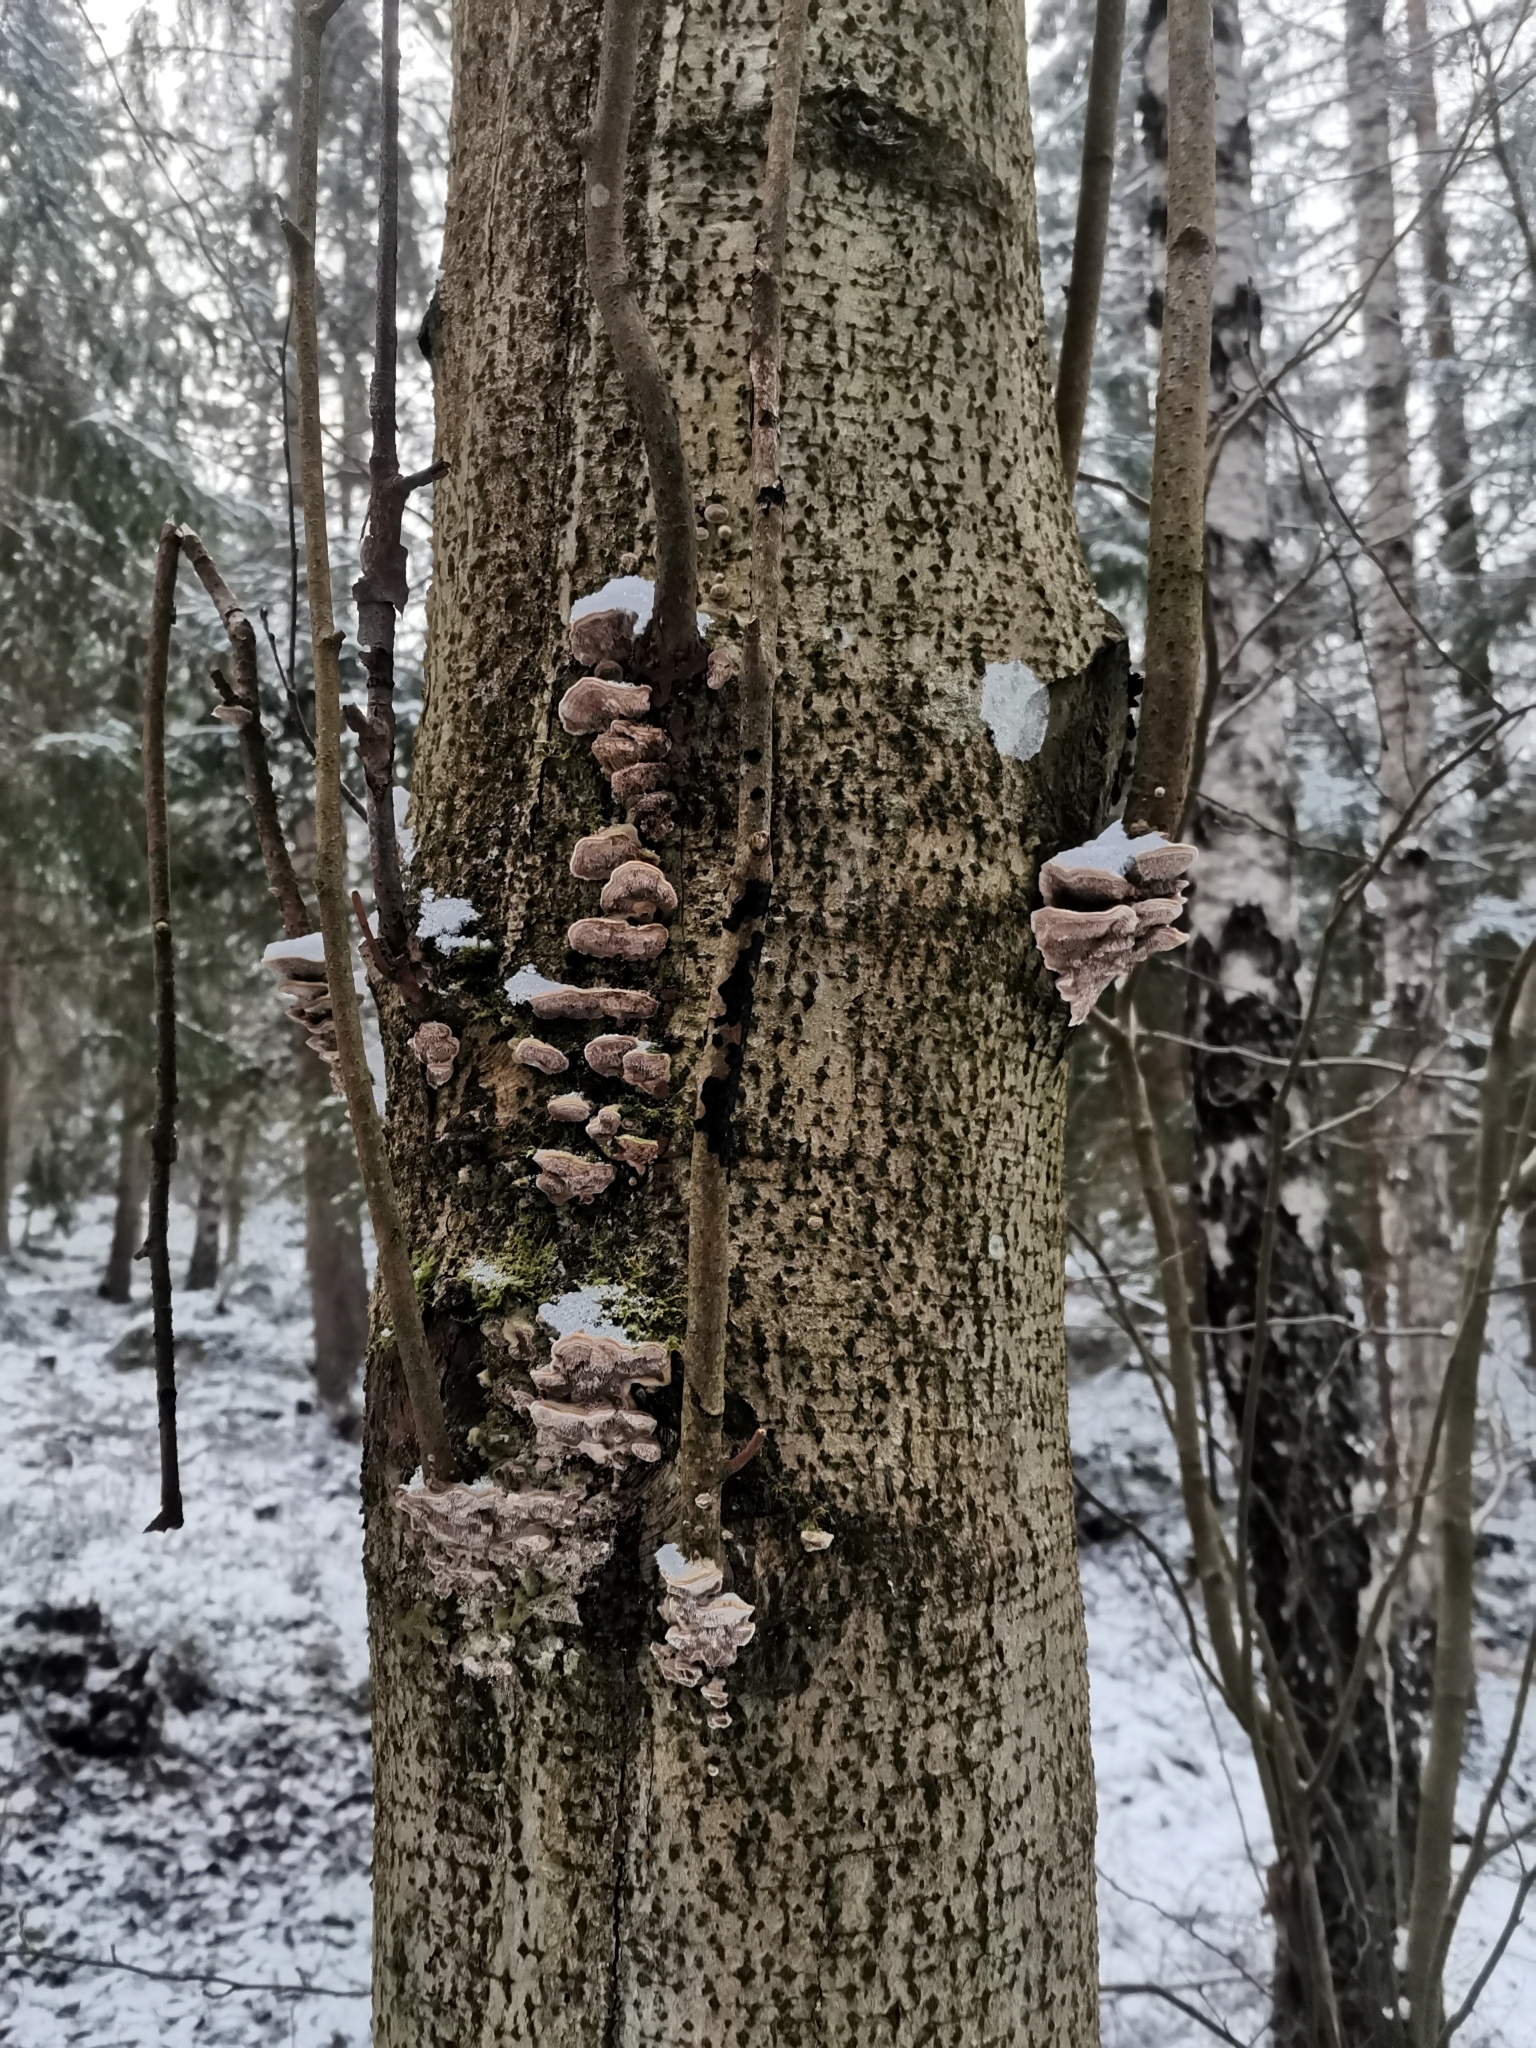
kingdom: Fungi
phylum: Basidiomycota
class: Agaricomycetes
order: Polyporales
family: Cerrenaceae
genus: Cerrena
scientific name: Cerrena unicolor
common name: Mossy maze polypore
